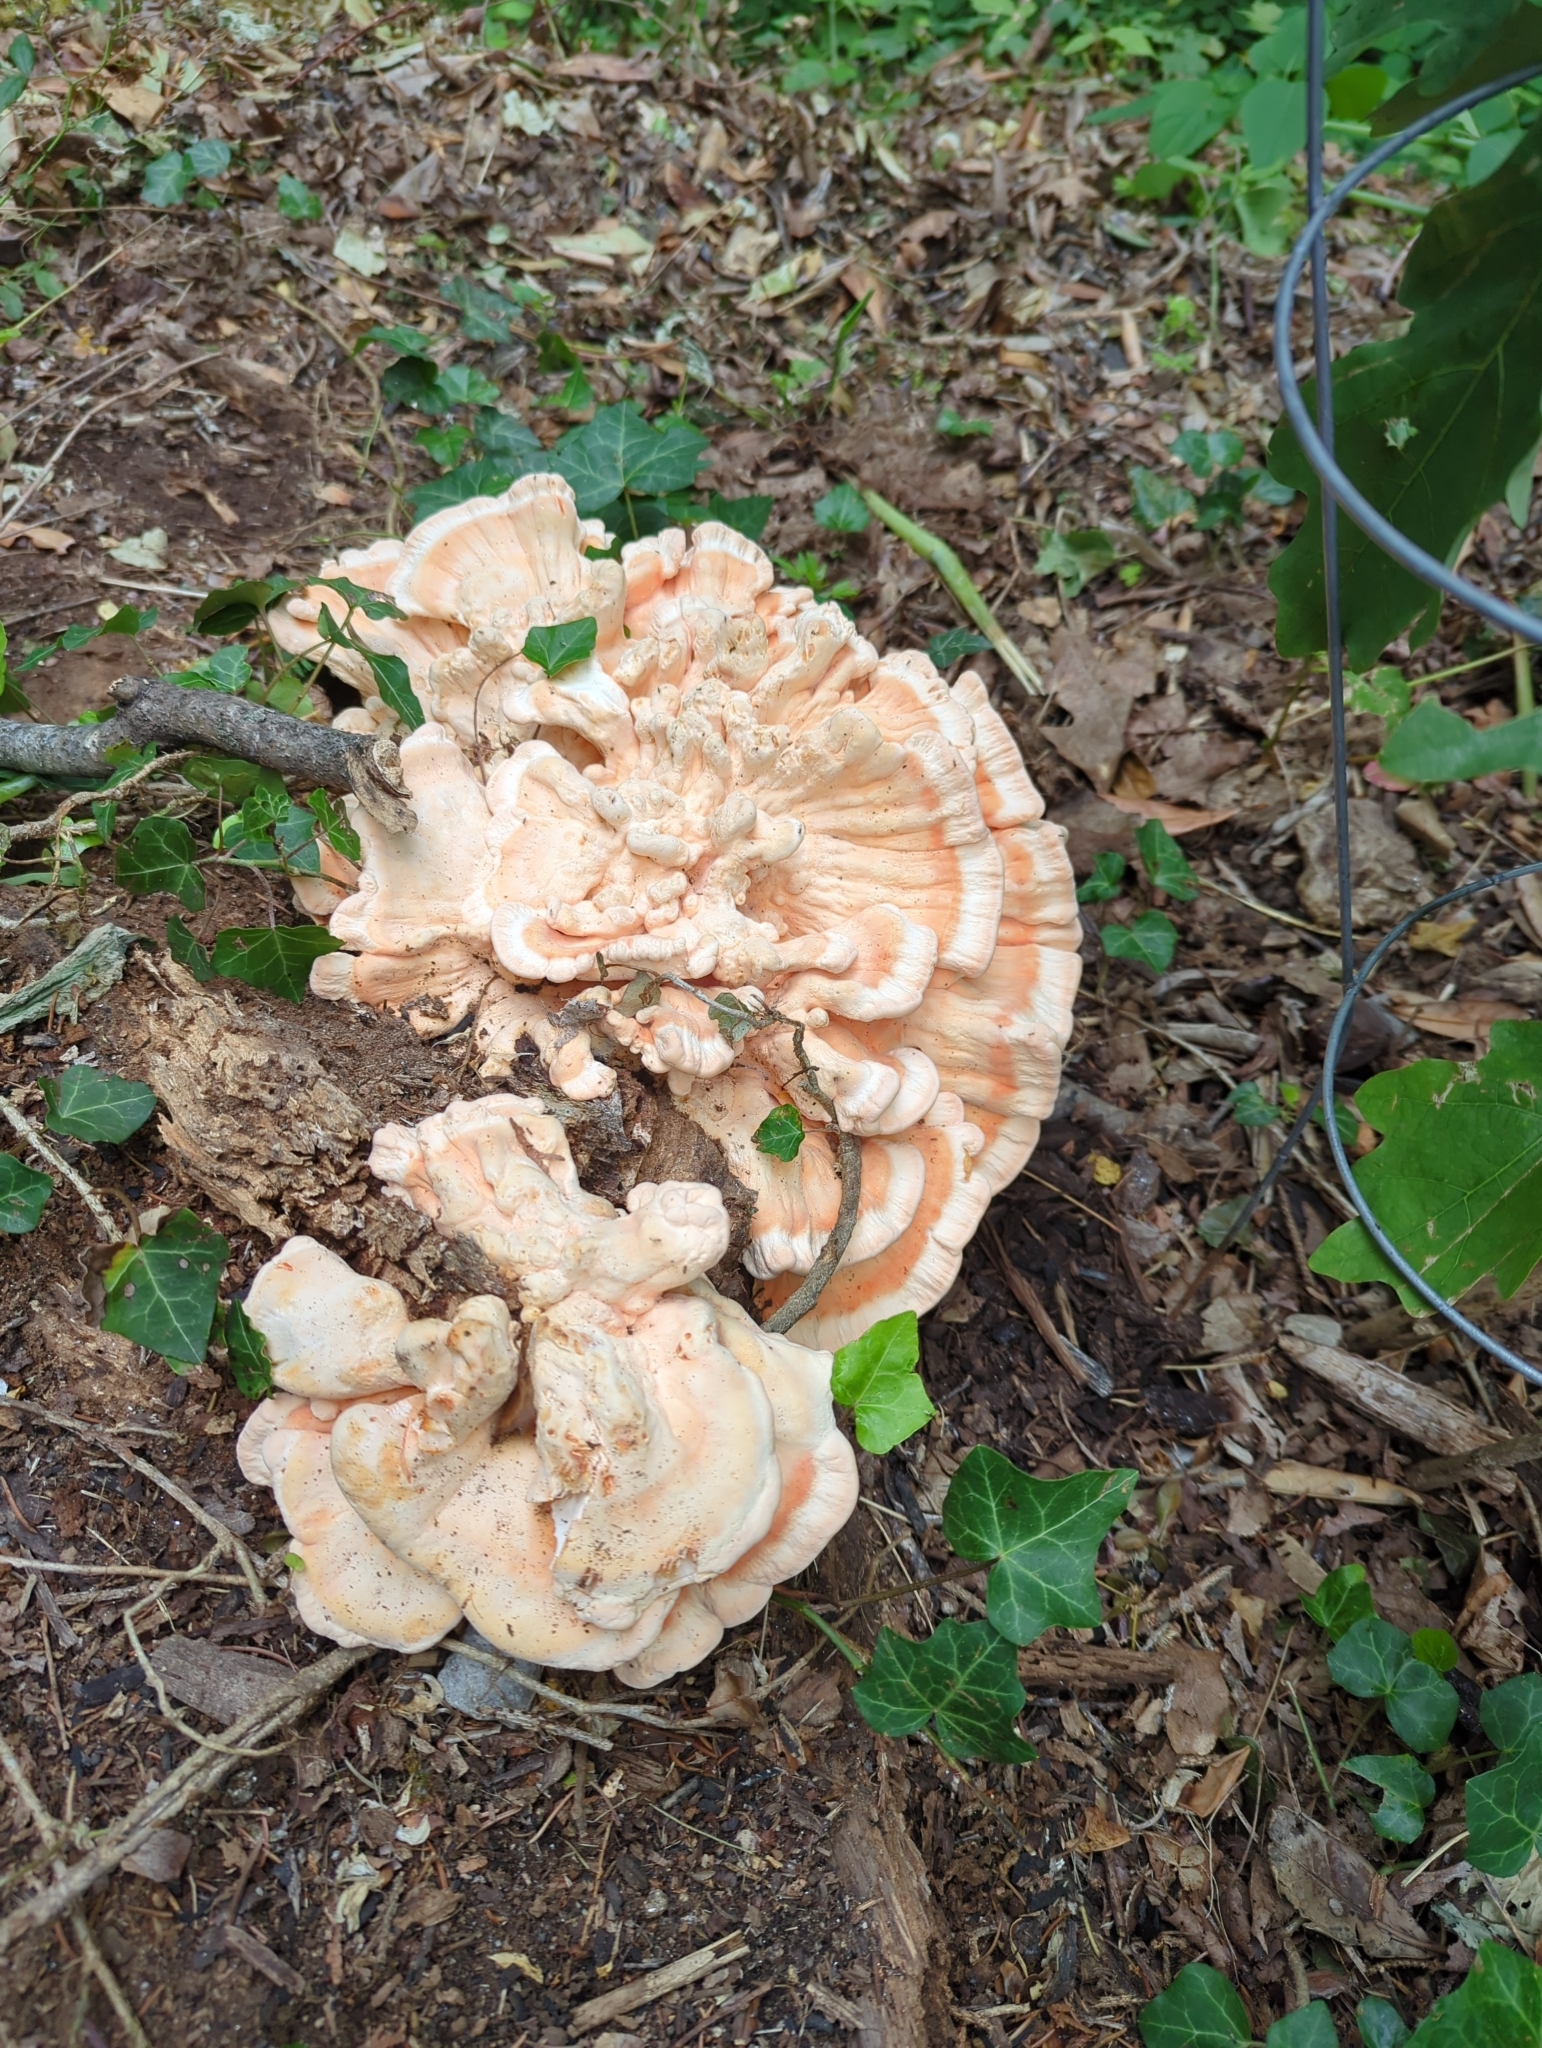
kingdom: Fungi
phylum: Basidiomycota
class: Agaricomycetes
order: Polyporales
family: Laetiporaceae
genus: Laetiporus
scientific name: Laetiporus sulphureus
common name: Chicken of the woods
